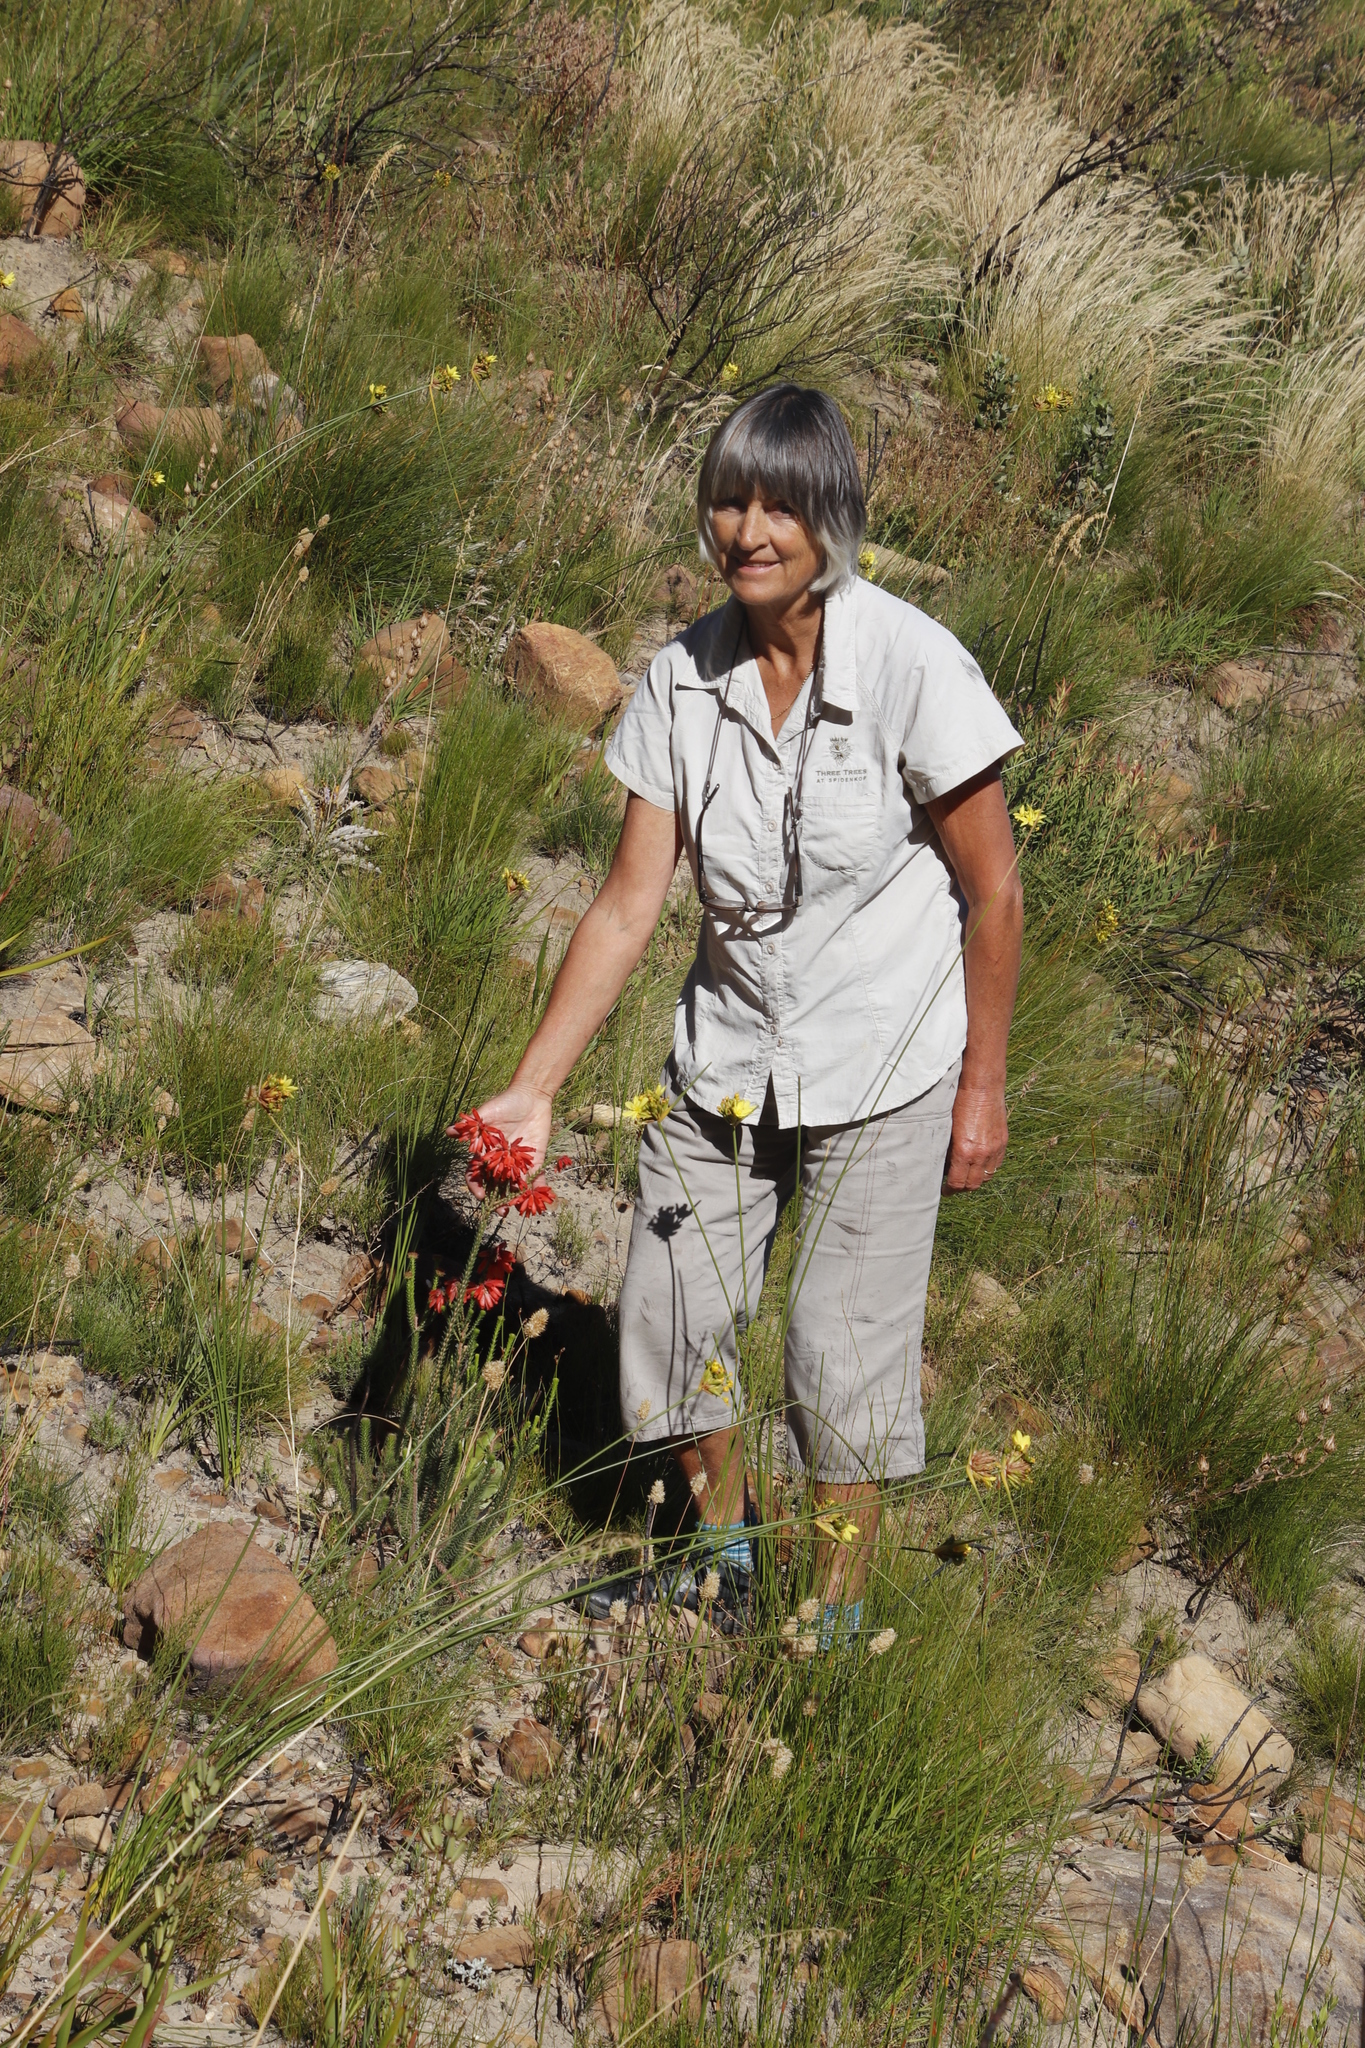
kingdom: Plantae
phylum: Tracheophyta
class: Magnoliopsida
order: Ericales
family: Ericaceae
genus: Erica
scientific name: Erica cerinthoides
